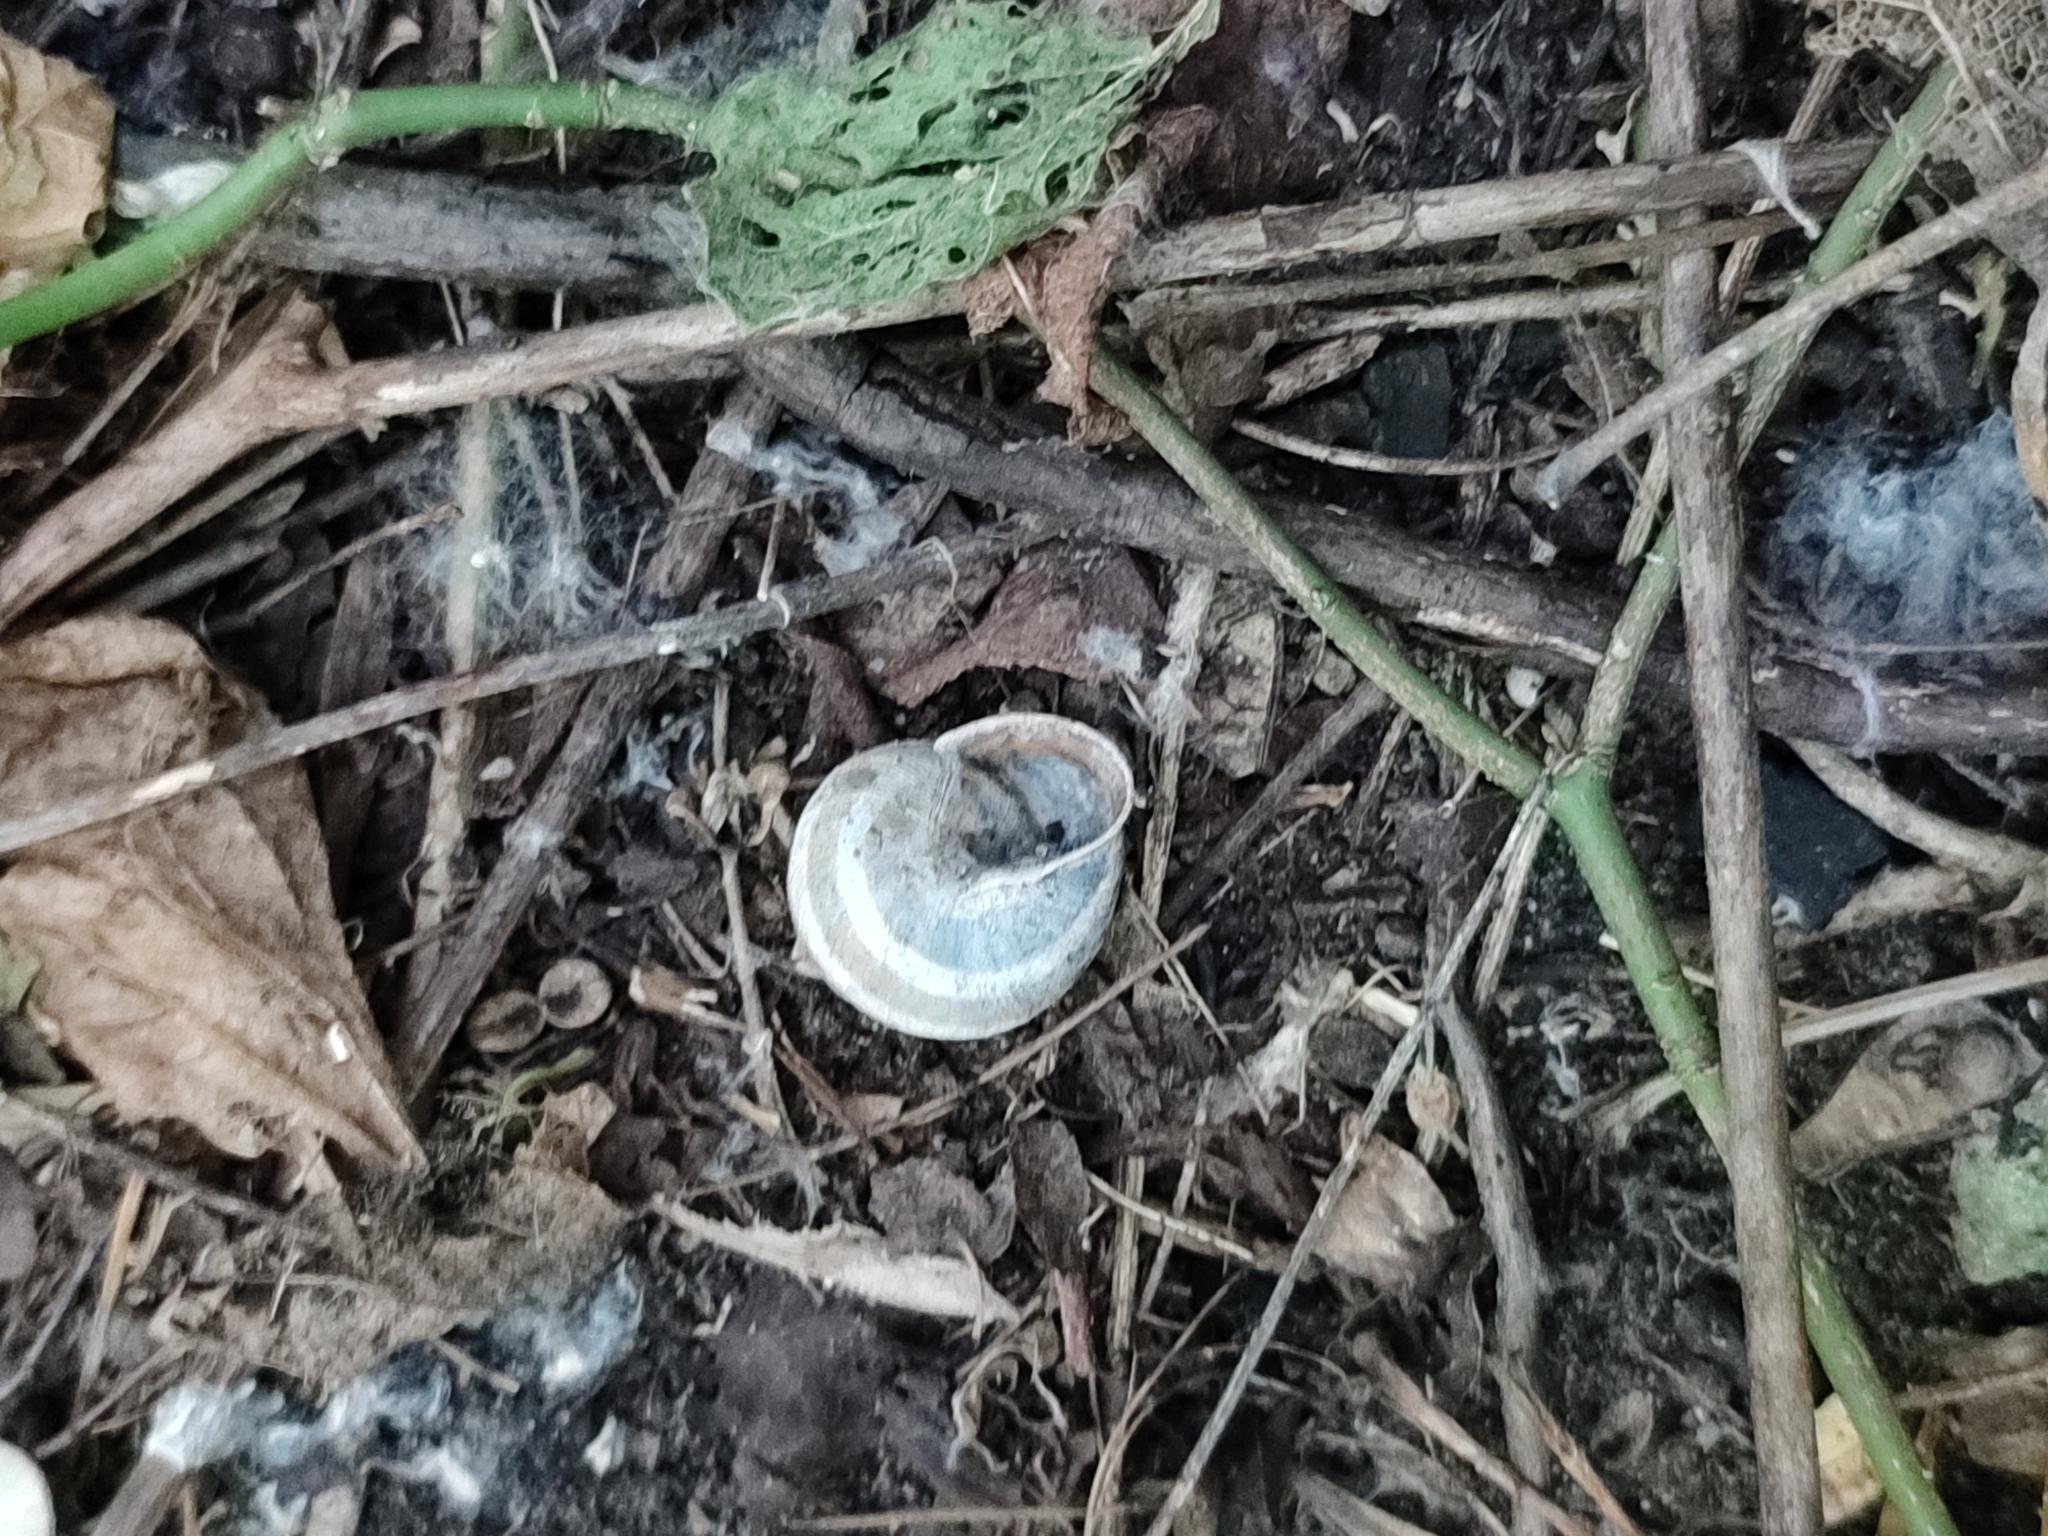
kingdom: Animalia
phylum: Mollusca
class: Gastropoda
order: Stylommatophora
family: Helicidae
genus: Caucasotachea
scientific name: Caucasotachea vindobonensis
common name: European helicid land snail
